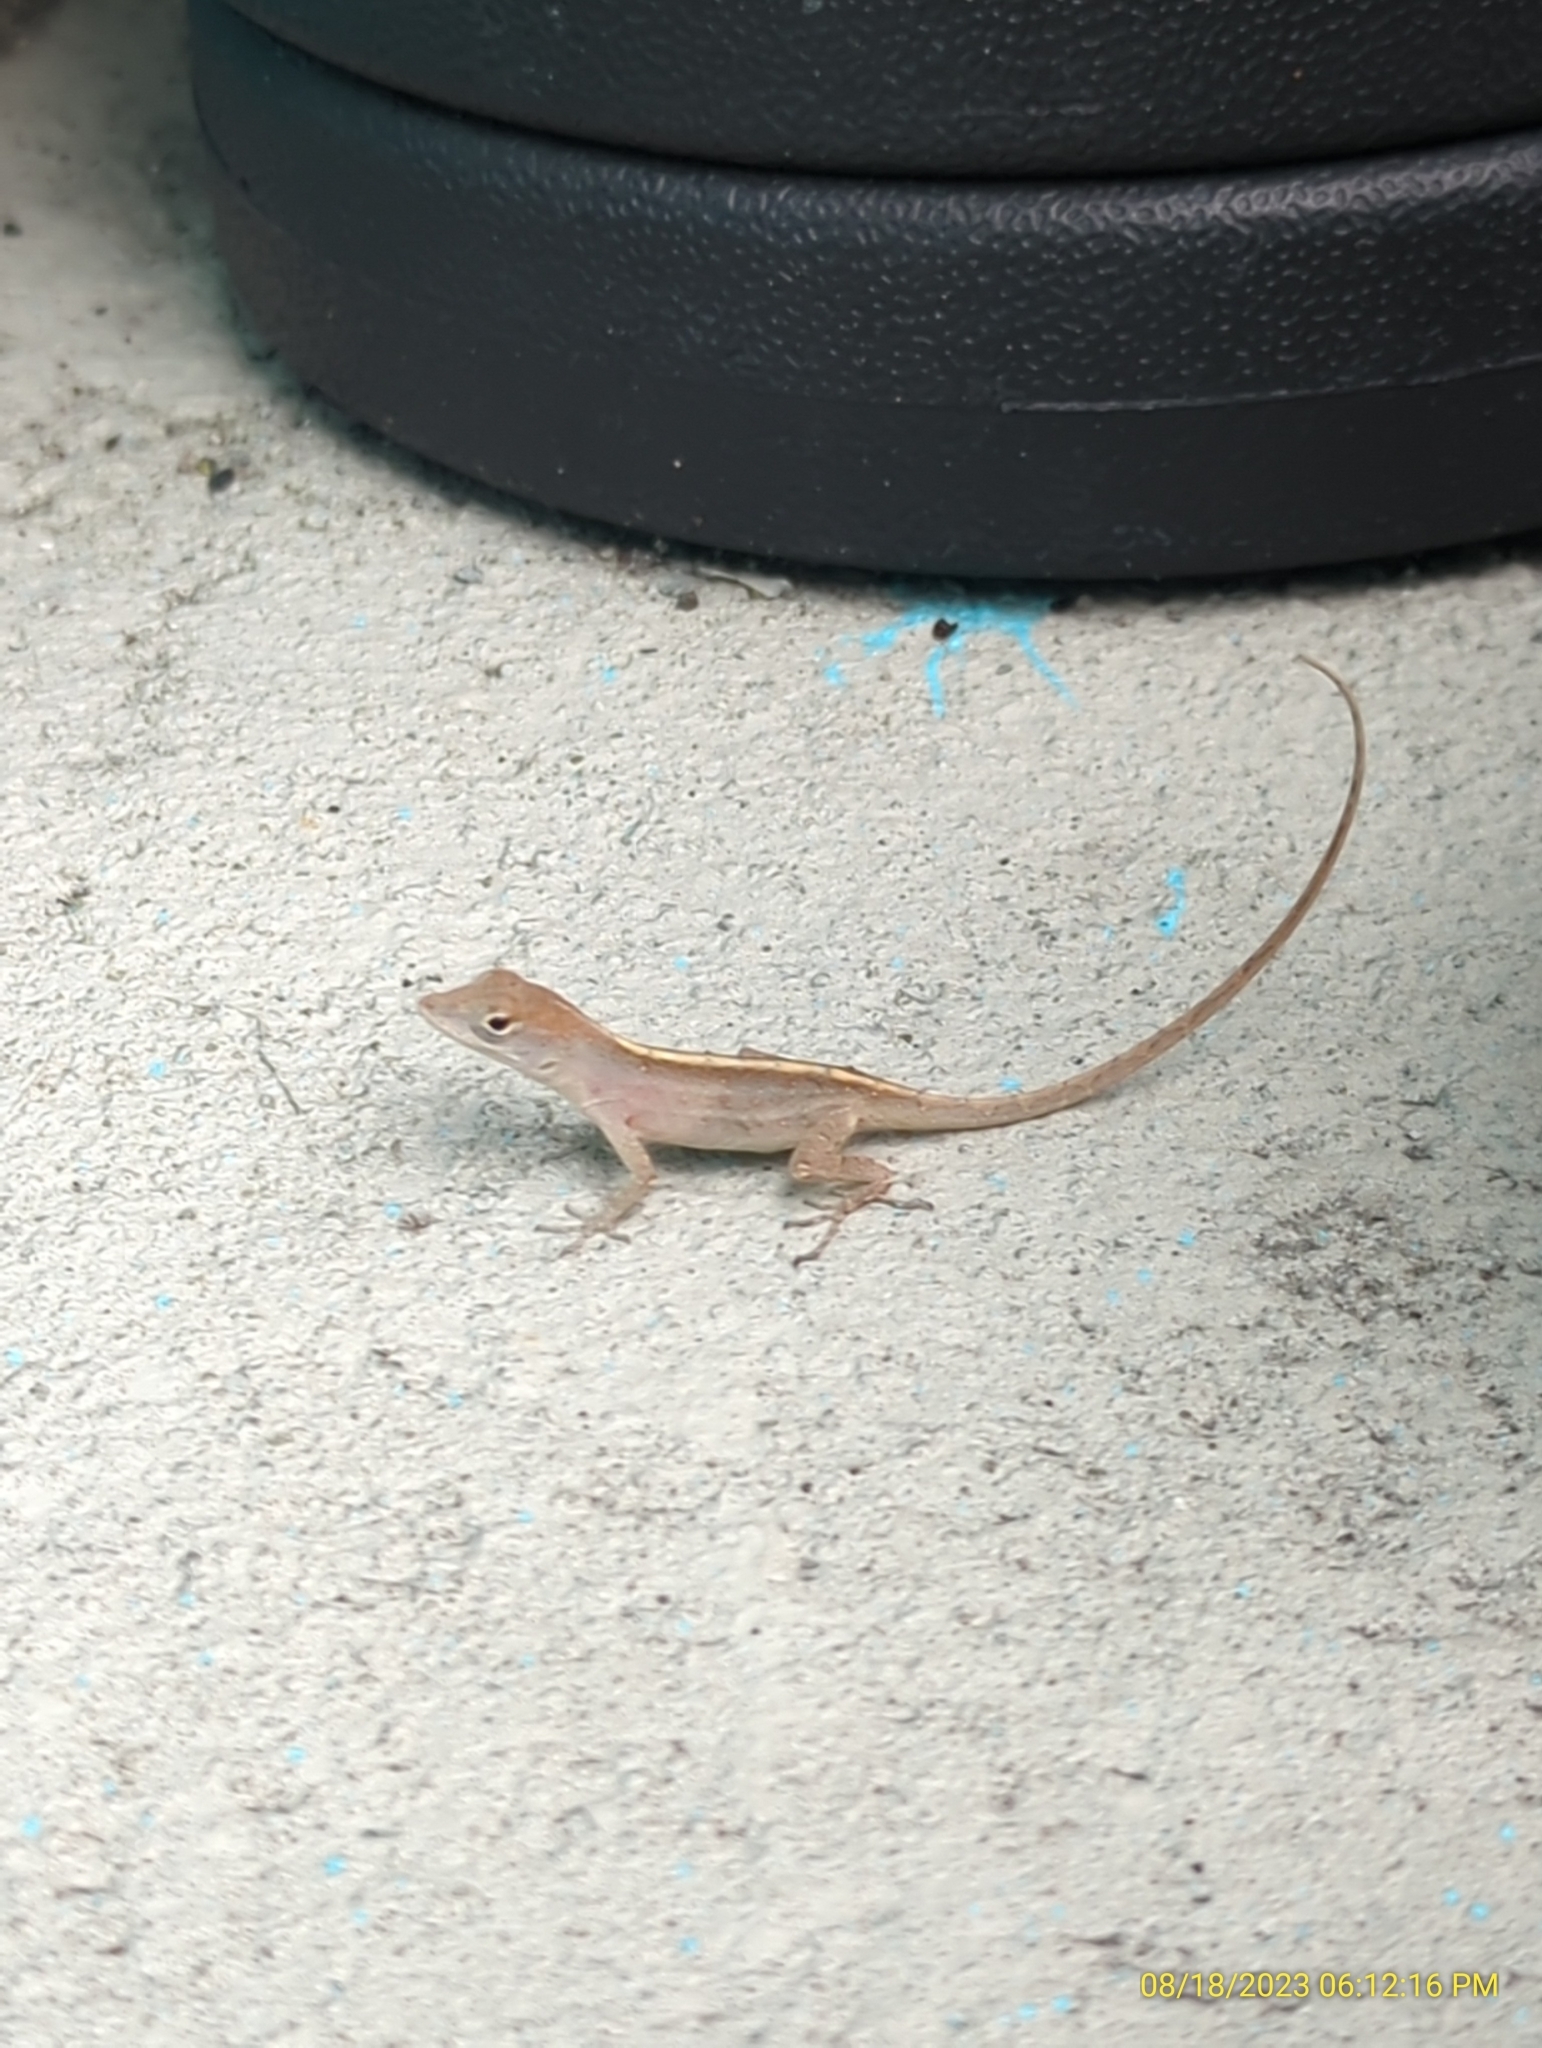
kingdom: Animalia
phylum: Chordata
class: Squamata
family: Dactyloidae
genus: Anolis
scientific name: Anolis sagrei
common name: Brown anole
